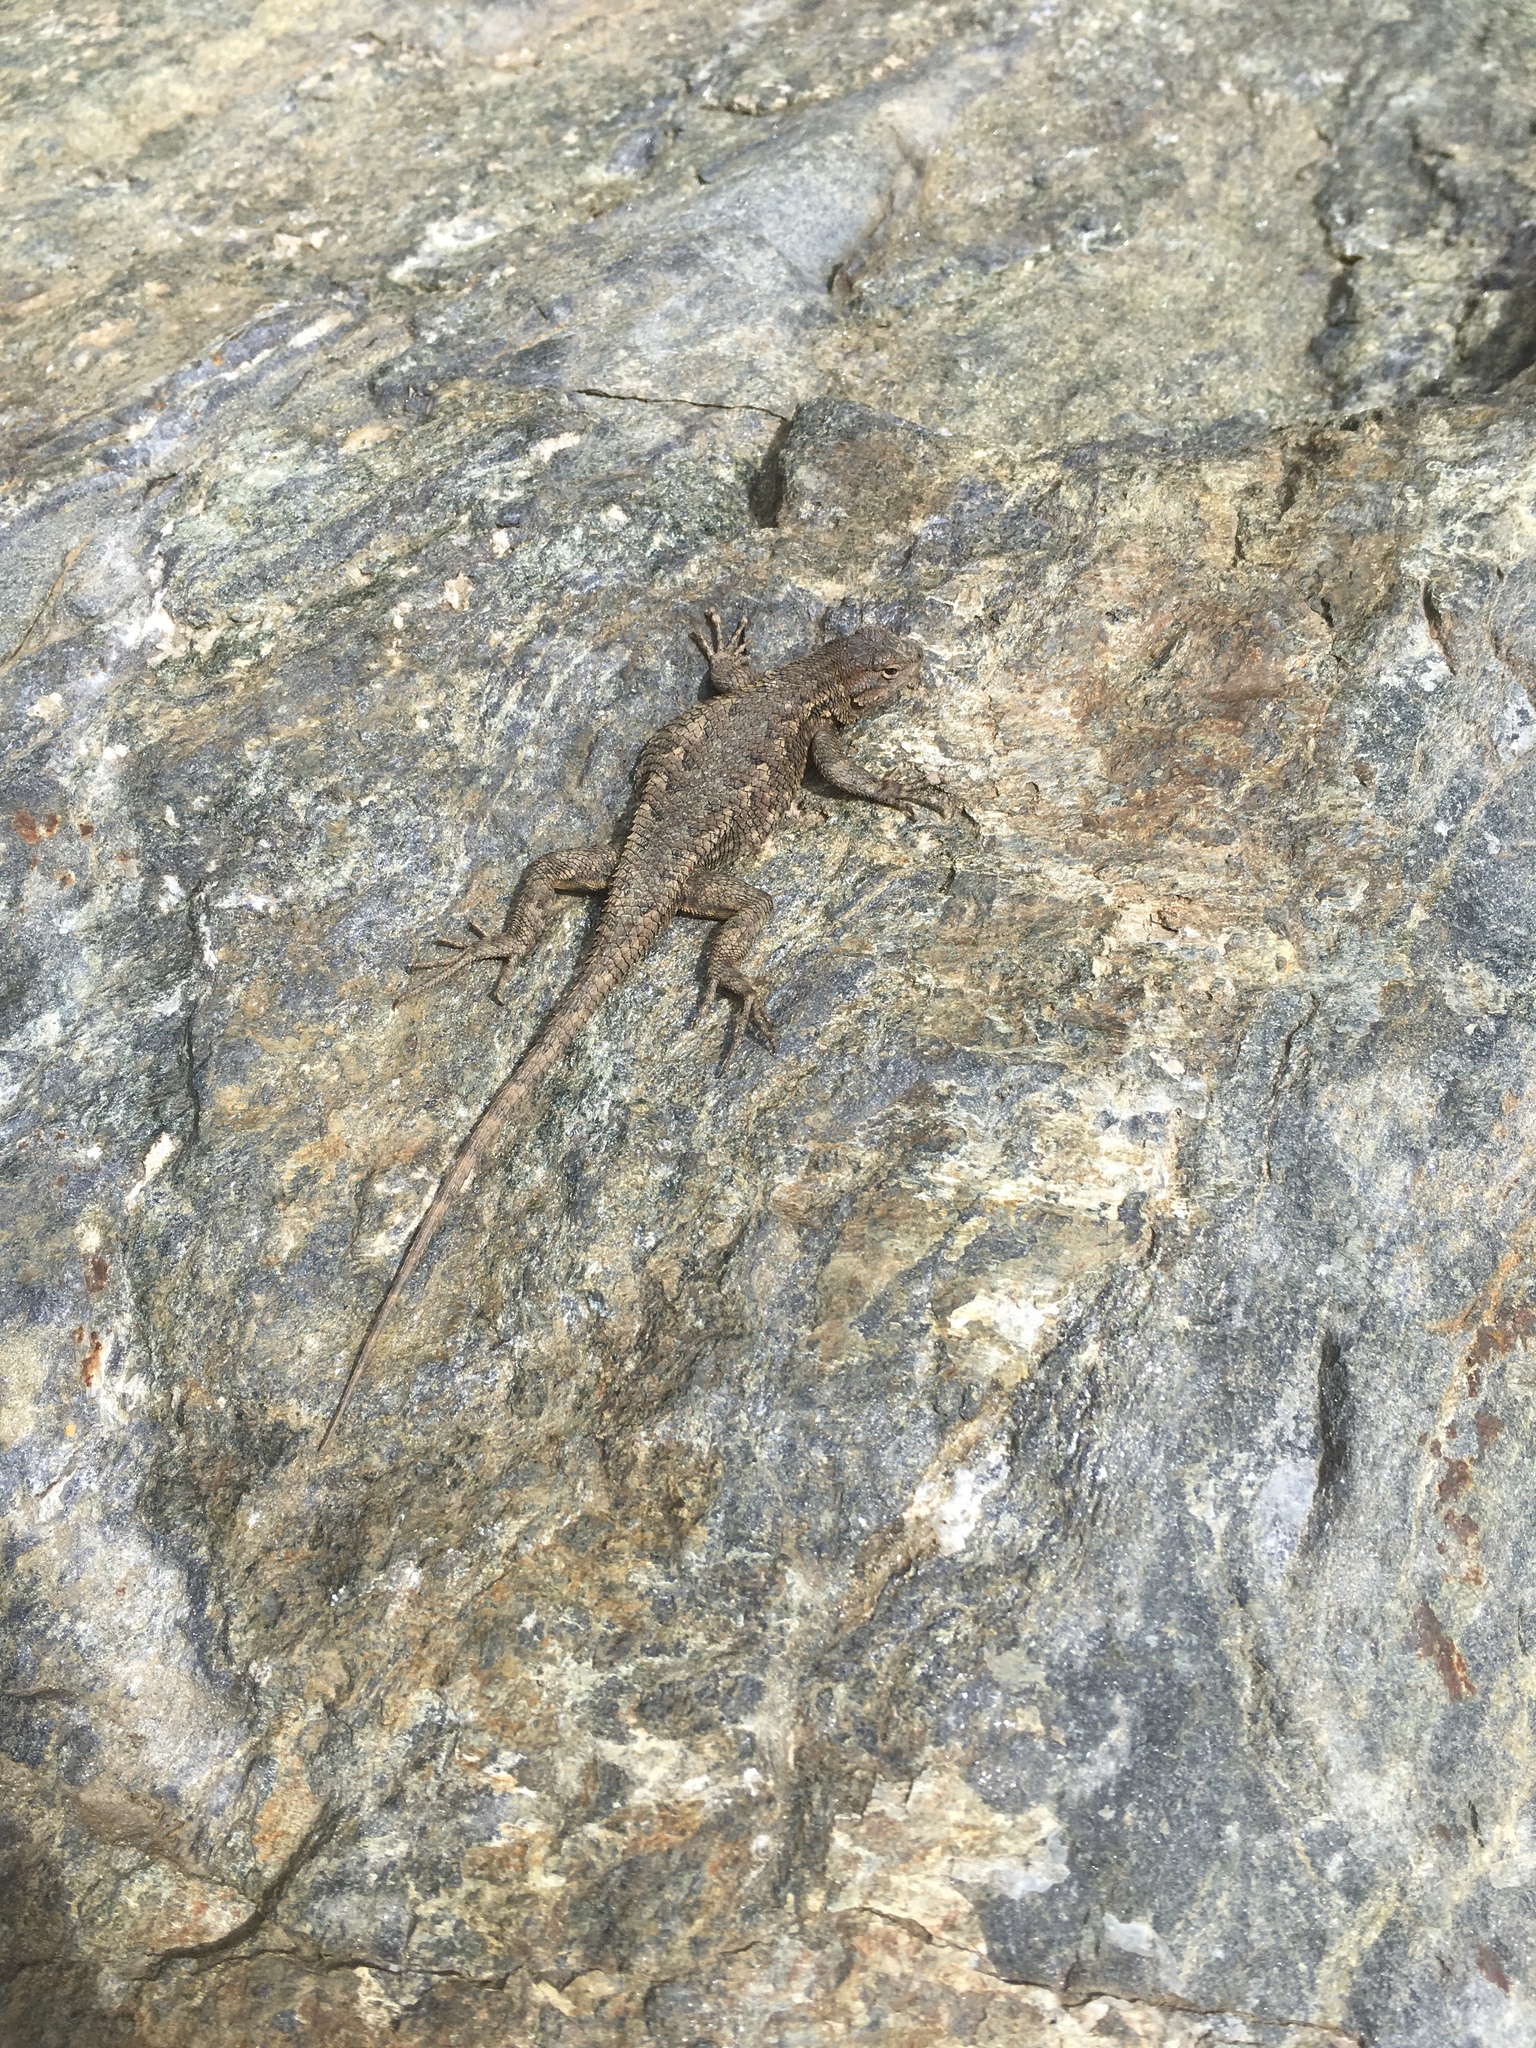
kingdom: Animalia
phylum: Chordata
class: Squamata
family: Phrynosomatidae
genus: Sceloporus
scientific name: Sceloporus occidentalis
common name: Western fence lizard
